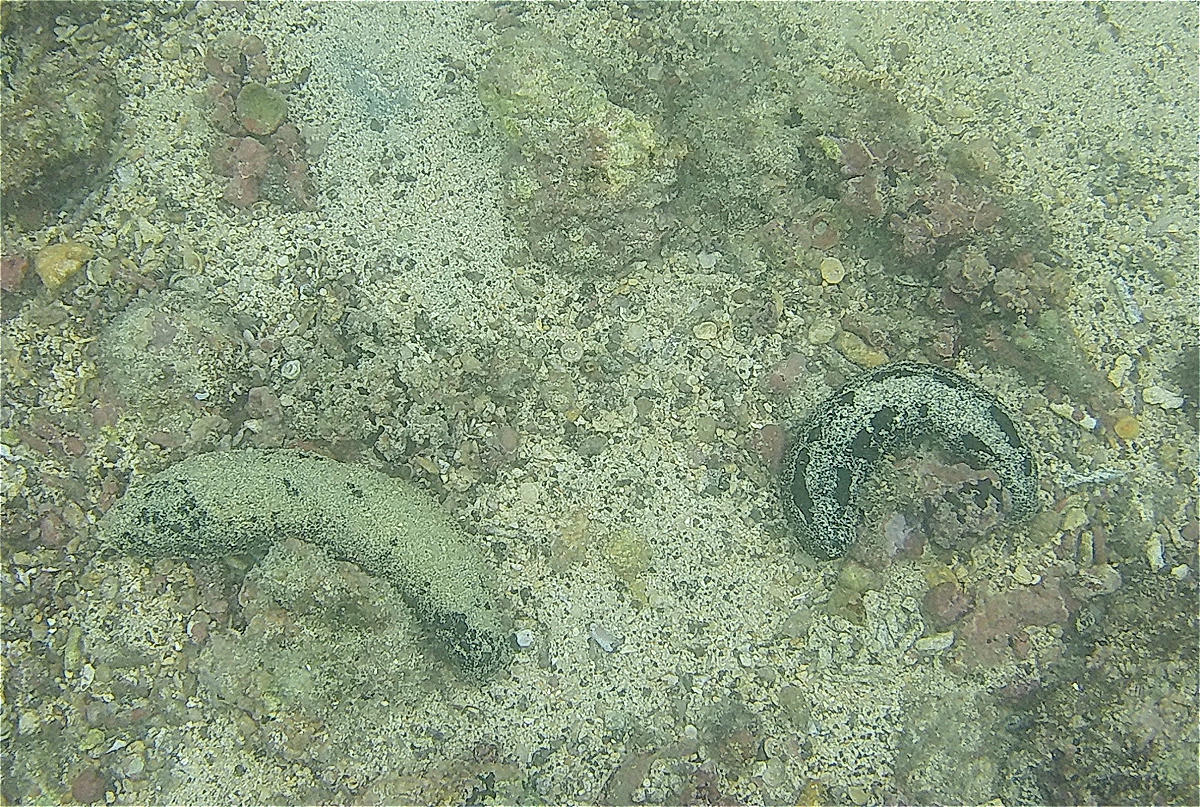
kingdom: Animalia
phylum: Echinodermata
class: Holothuroidea
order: Holothuriida
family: Holothuriidae
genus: Holothuria
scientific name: Holothuria atra
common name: Lollyfish
